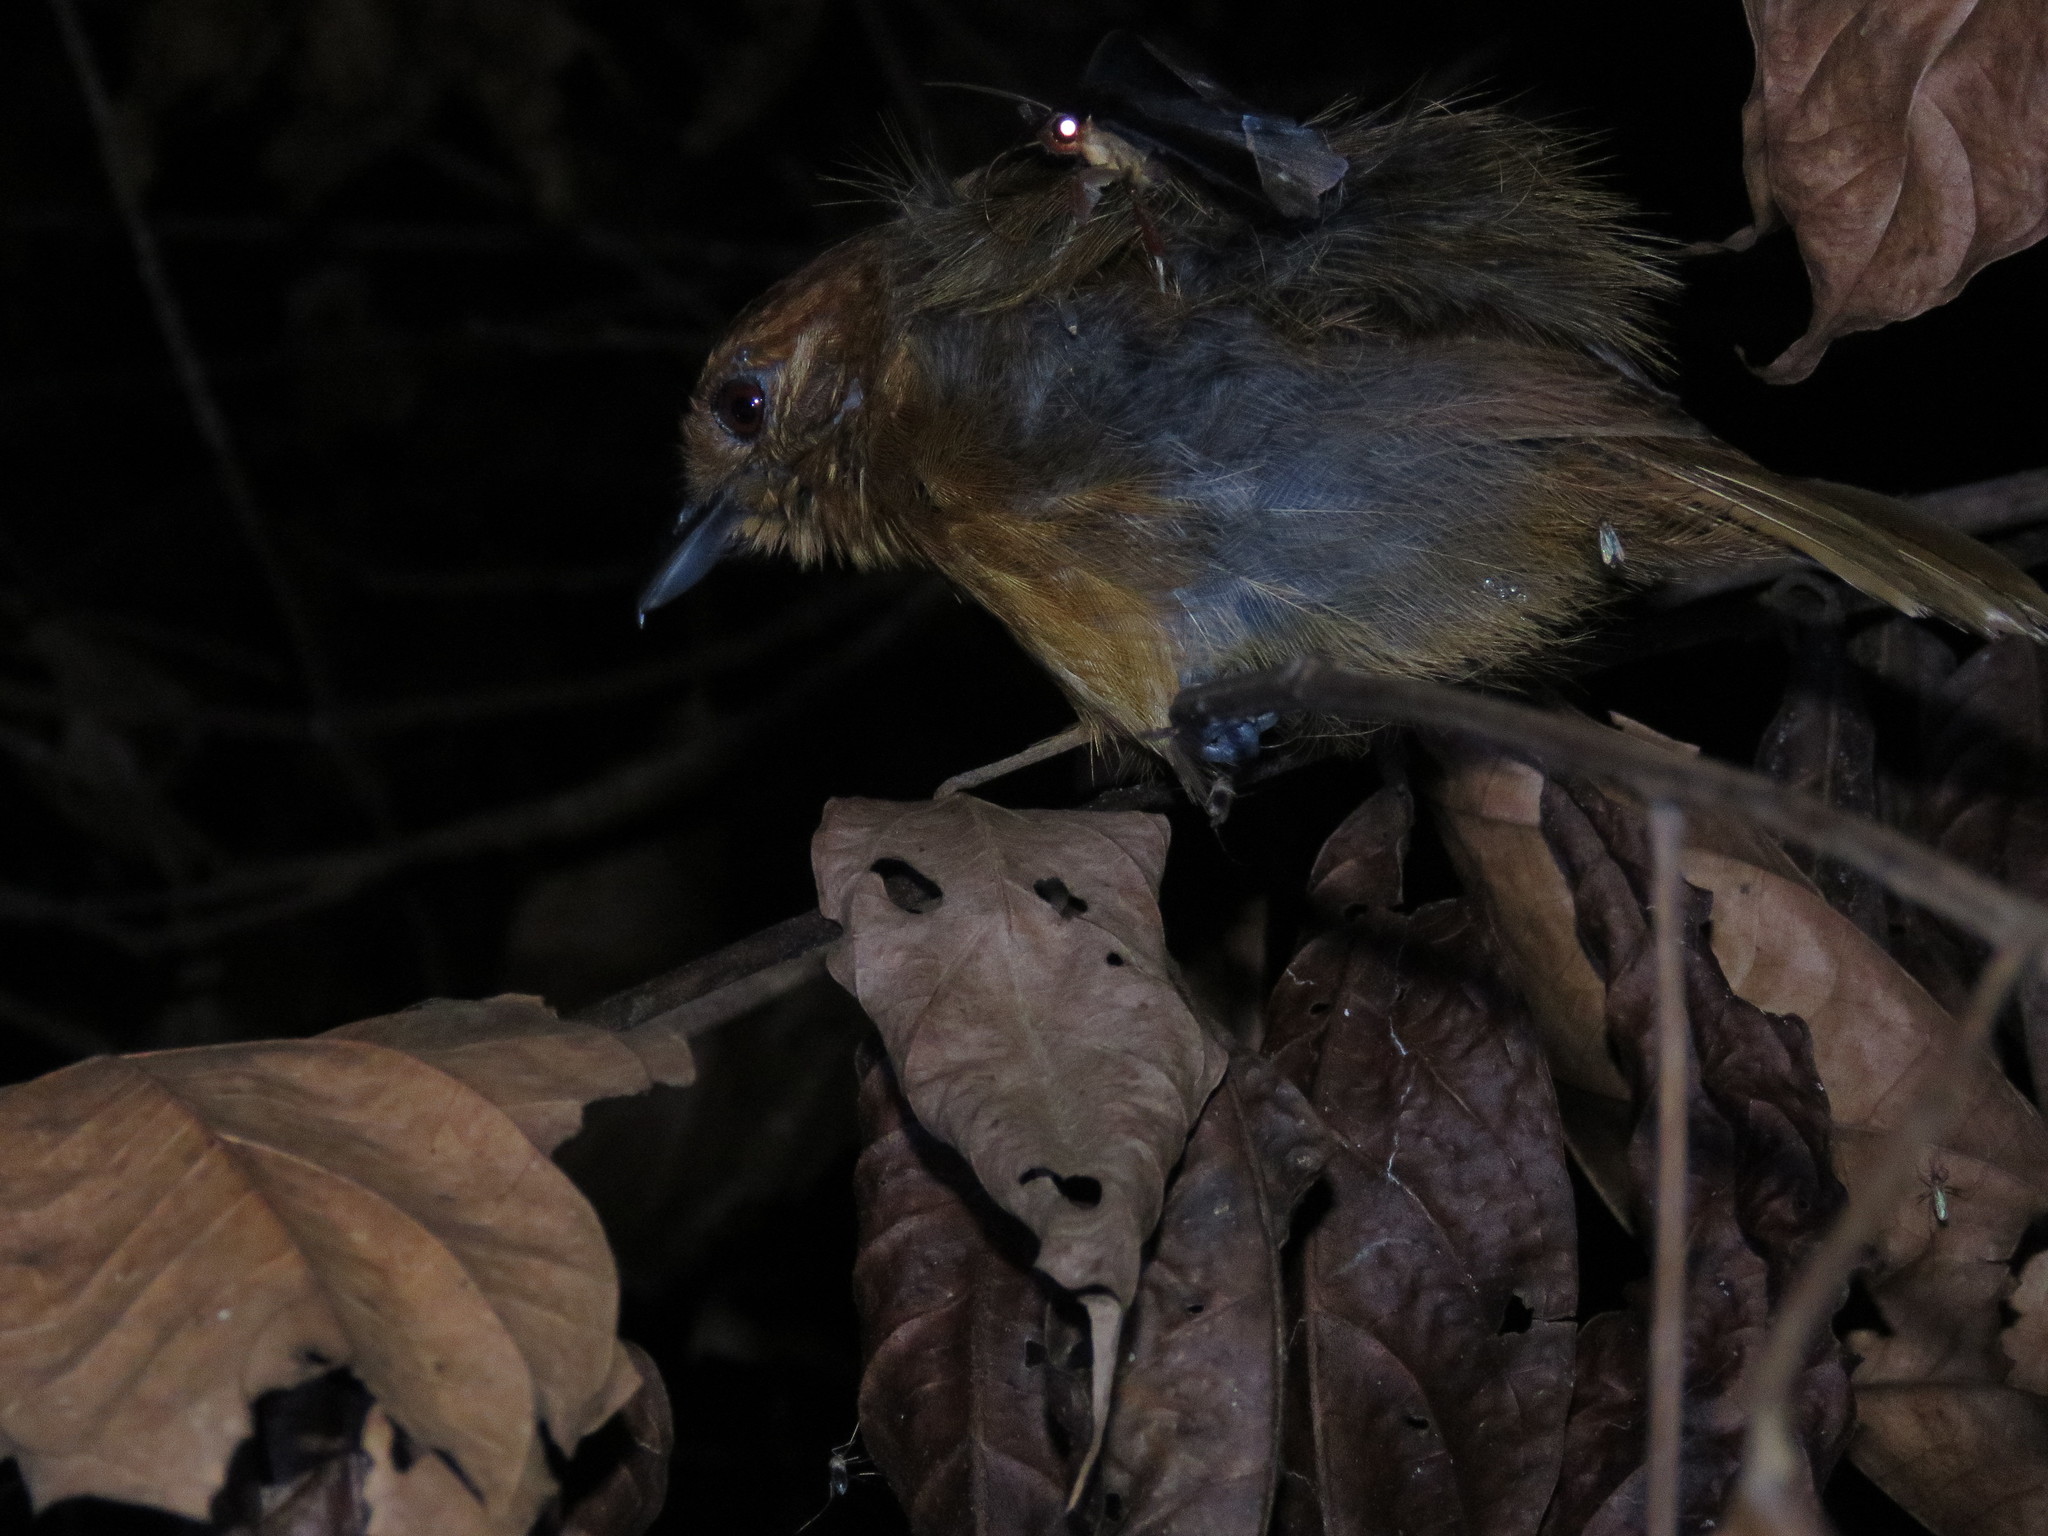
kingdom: Animalia
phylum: Chordata
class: Aves
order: Passeriformes
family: Thamnophilidae
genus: Thamnophilus
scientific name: Thamnophilus schistaceus
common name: Plain-winged antshrike
